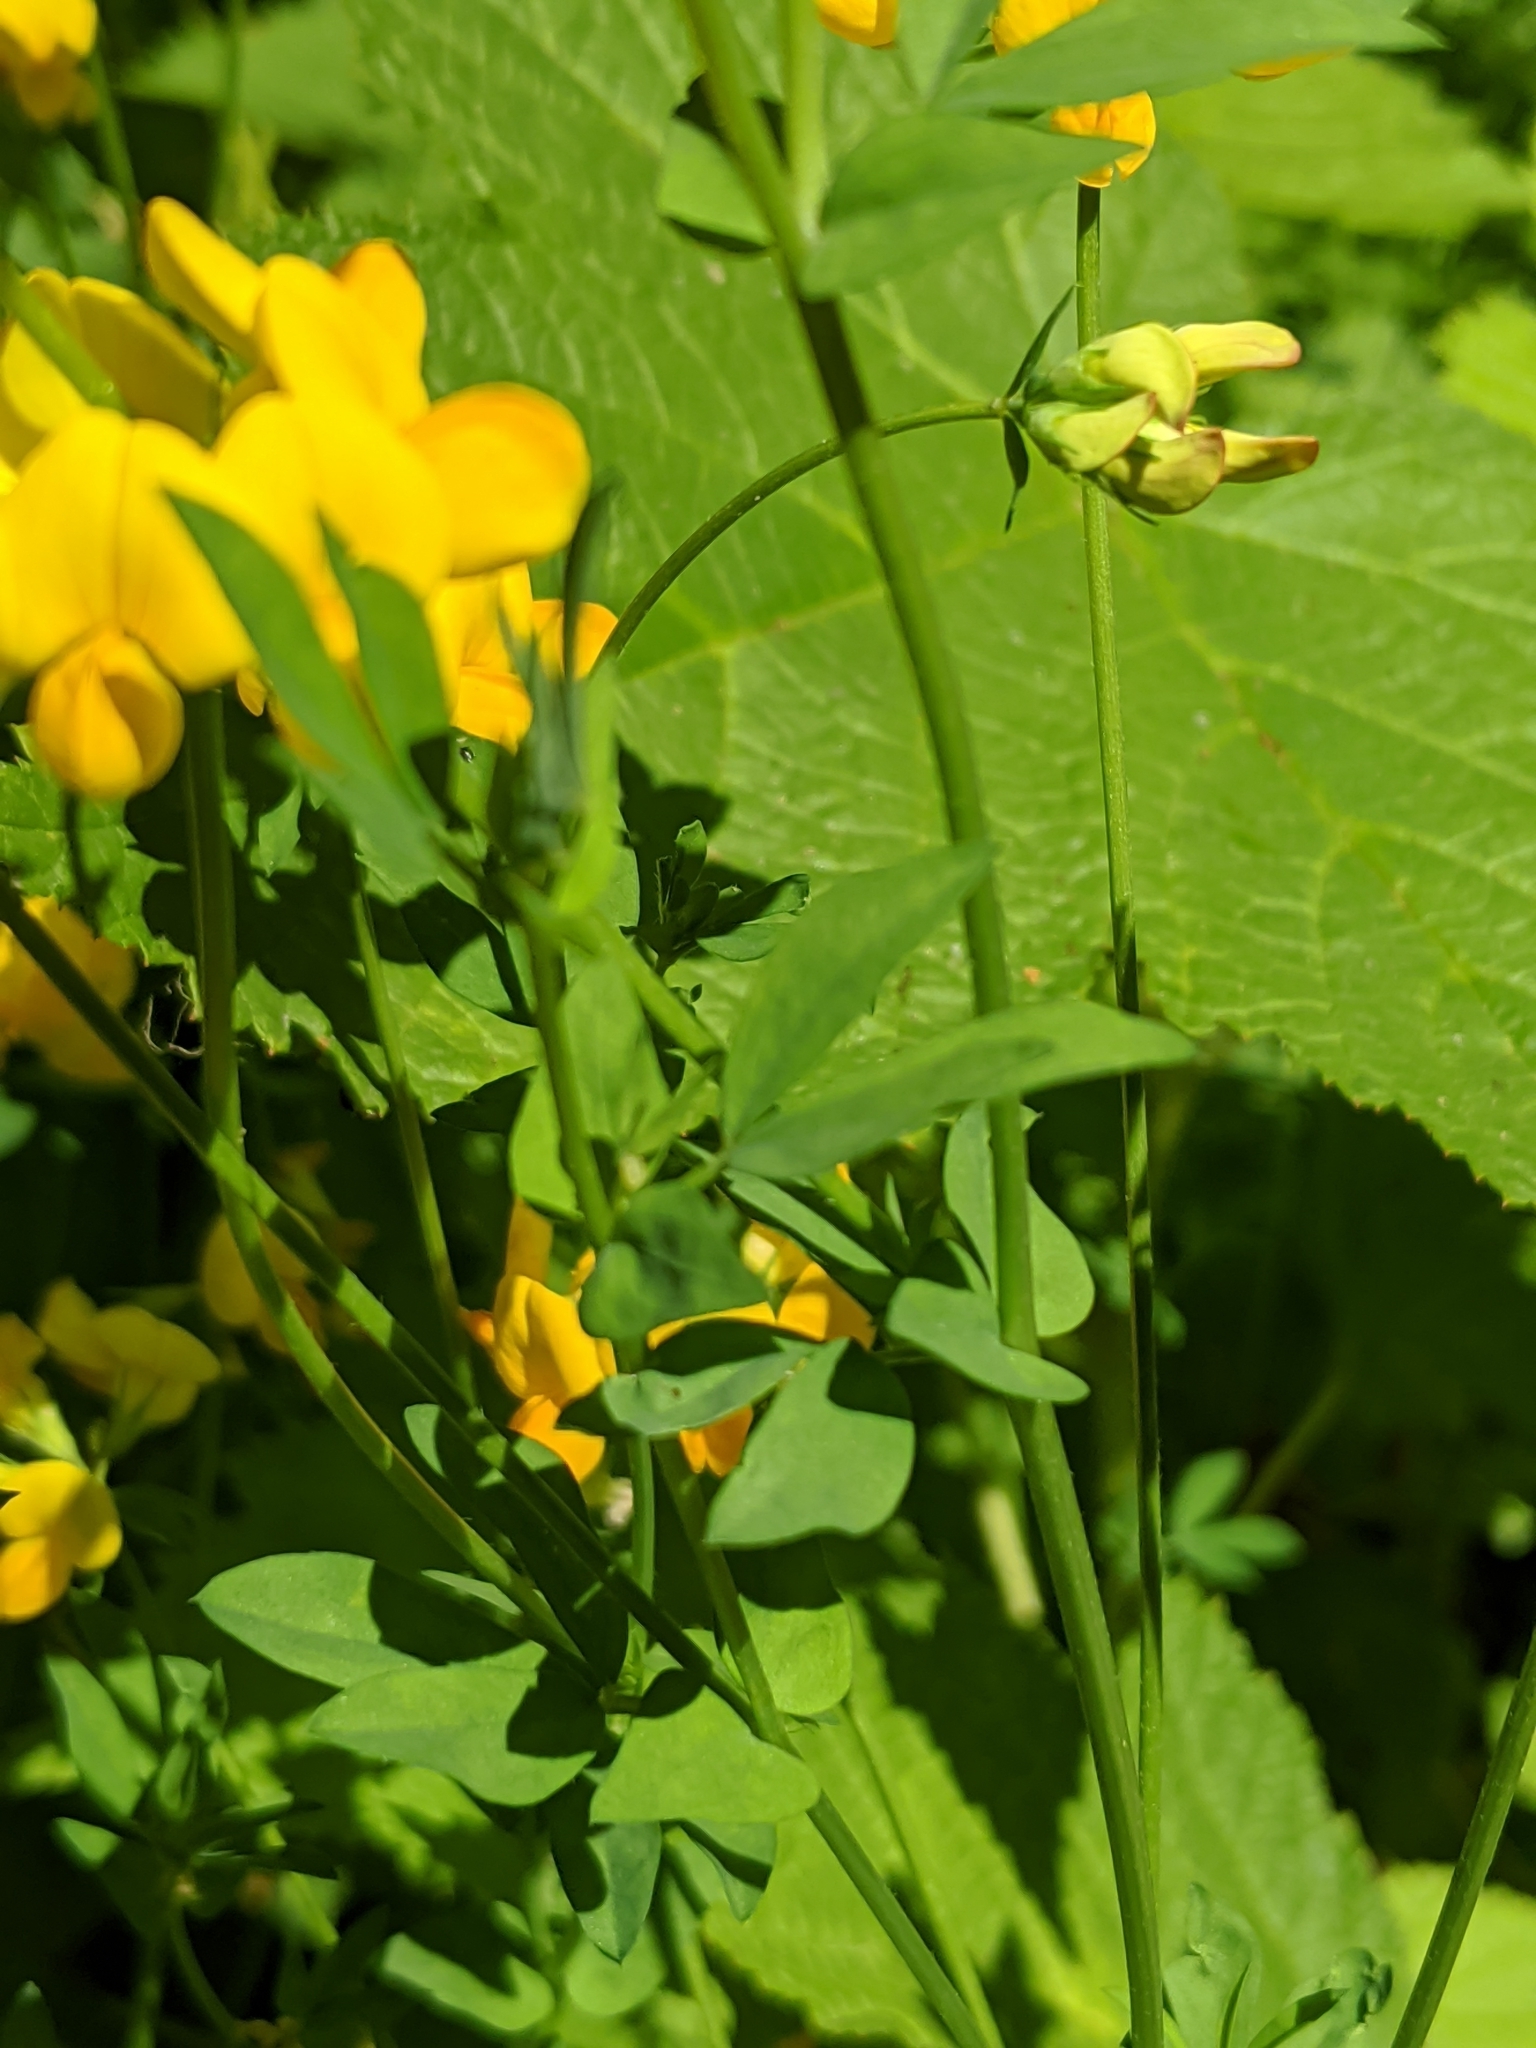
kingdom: Plantae
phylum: Tracheophyta
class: Magnoliopsida
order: Fabales
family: Fabaceae
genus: Lotus
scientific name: Lotus corniculatus
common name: Common bird's-foot-trefoil
